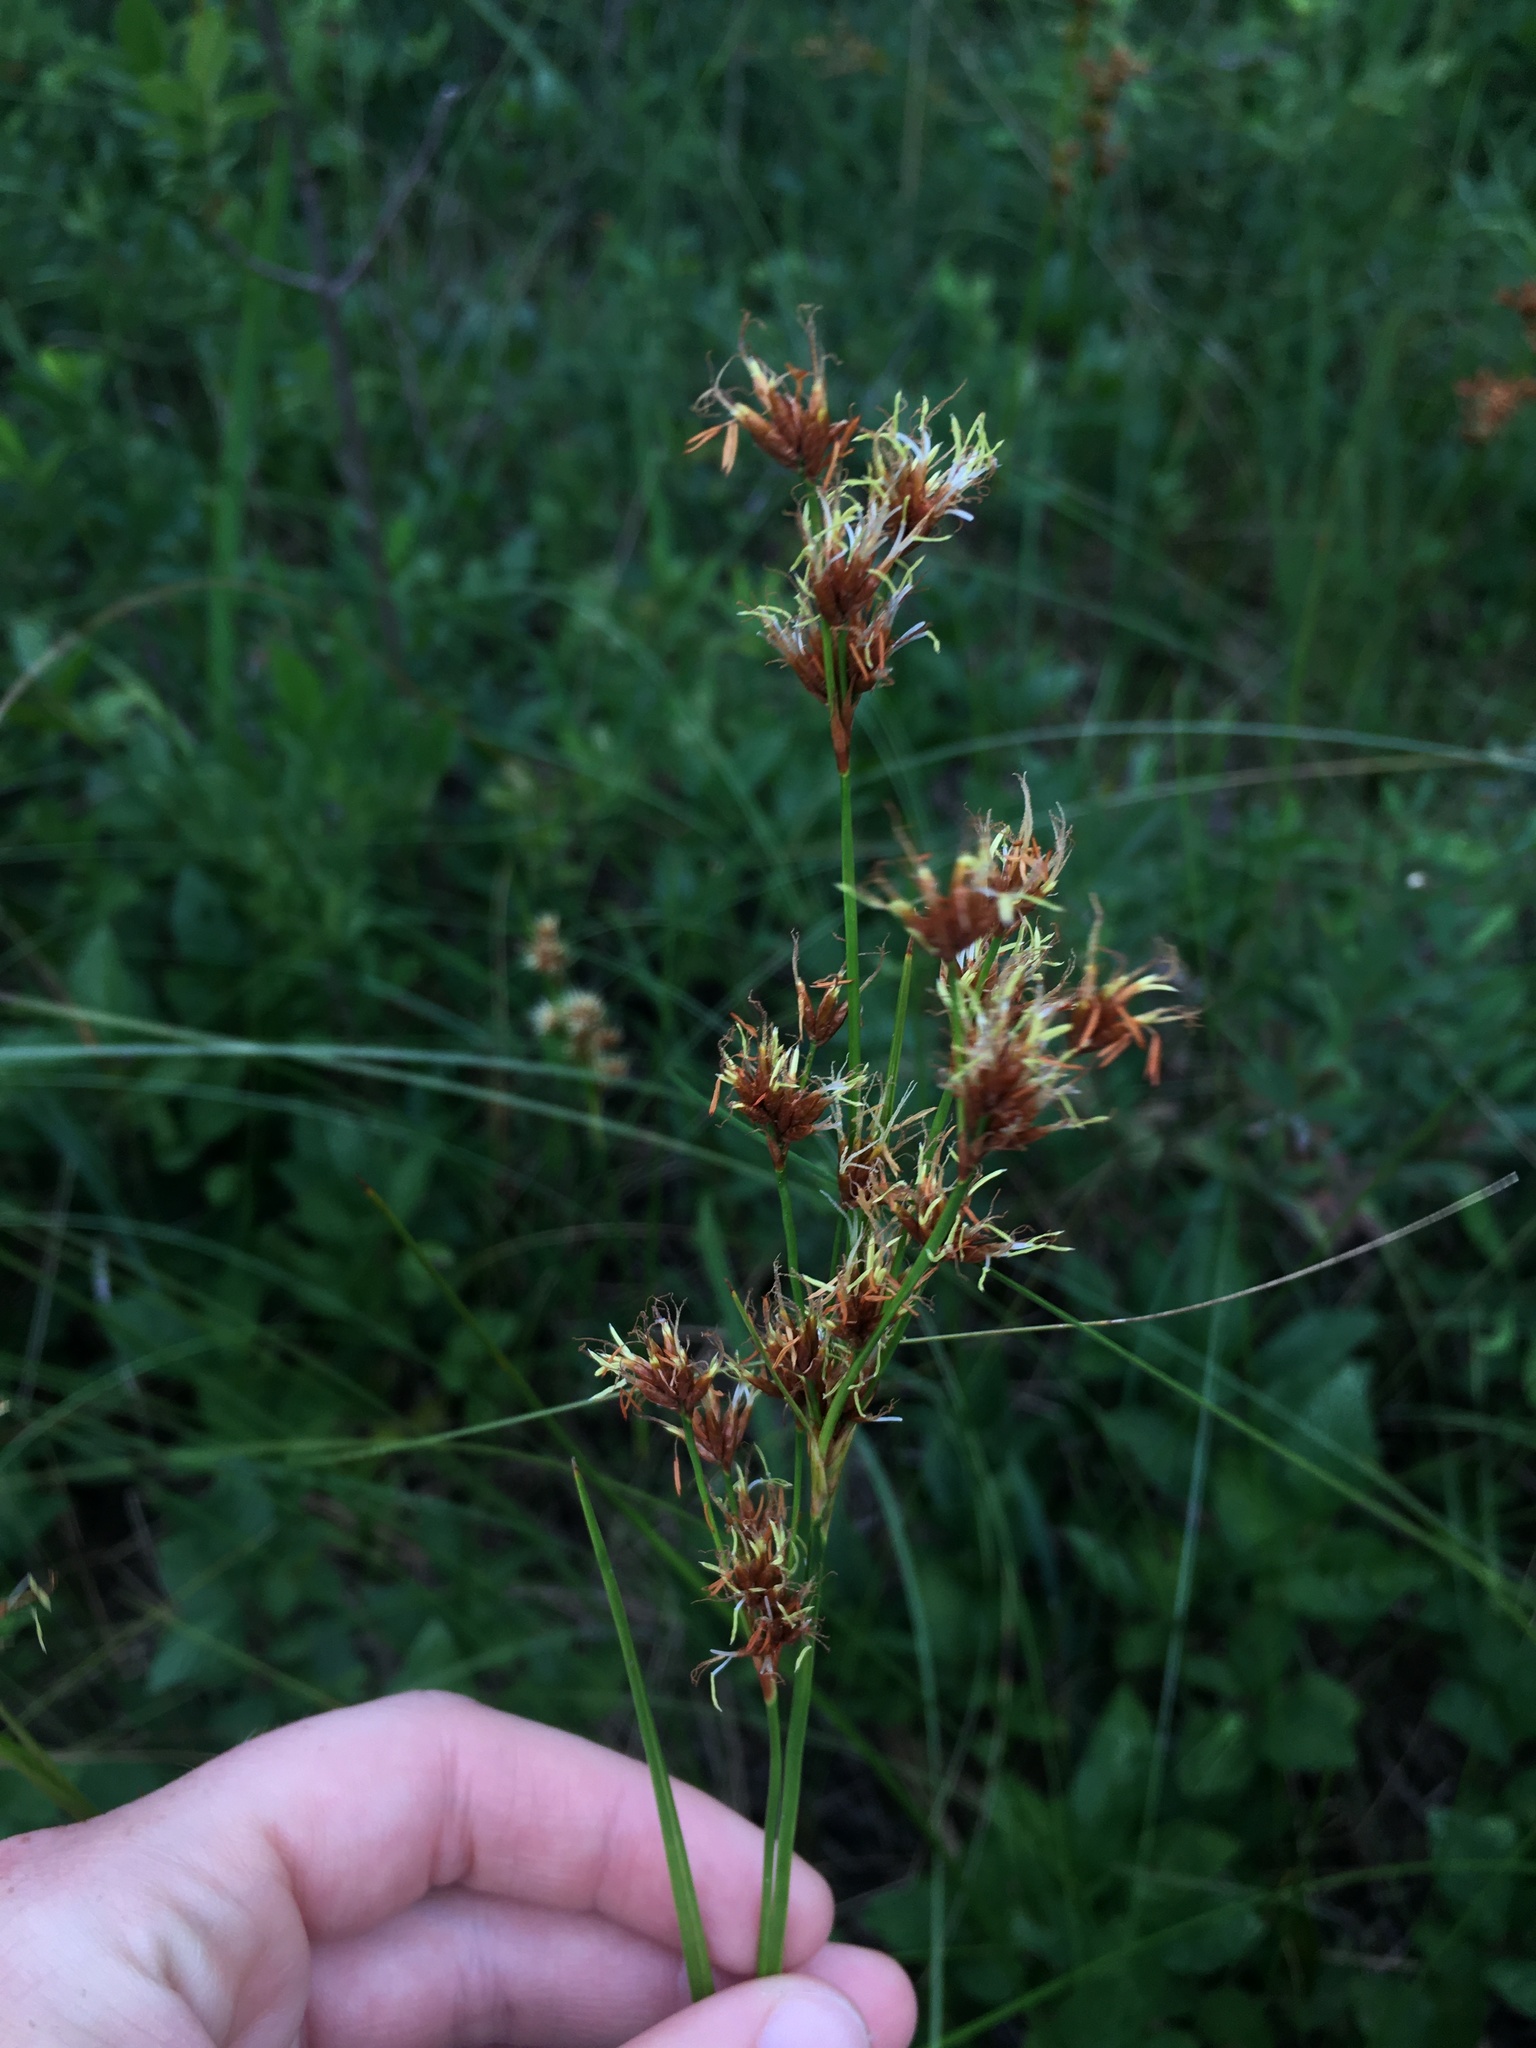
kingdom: Plantae
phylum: Tracheophyta
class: Liliopsida
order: Poales
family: Cyperaceae
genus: Cladium
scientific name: Cladium mariscoides
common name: Smooth sawgrass
